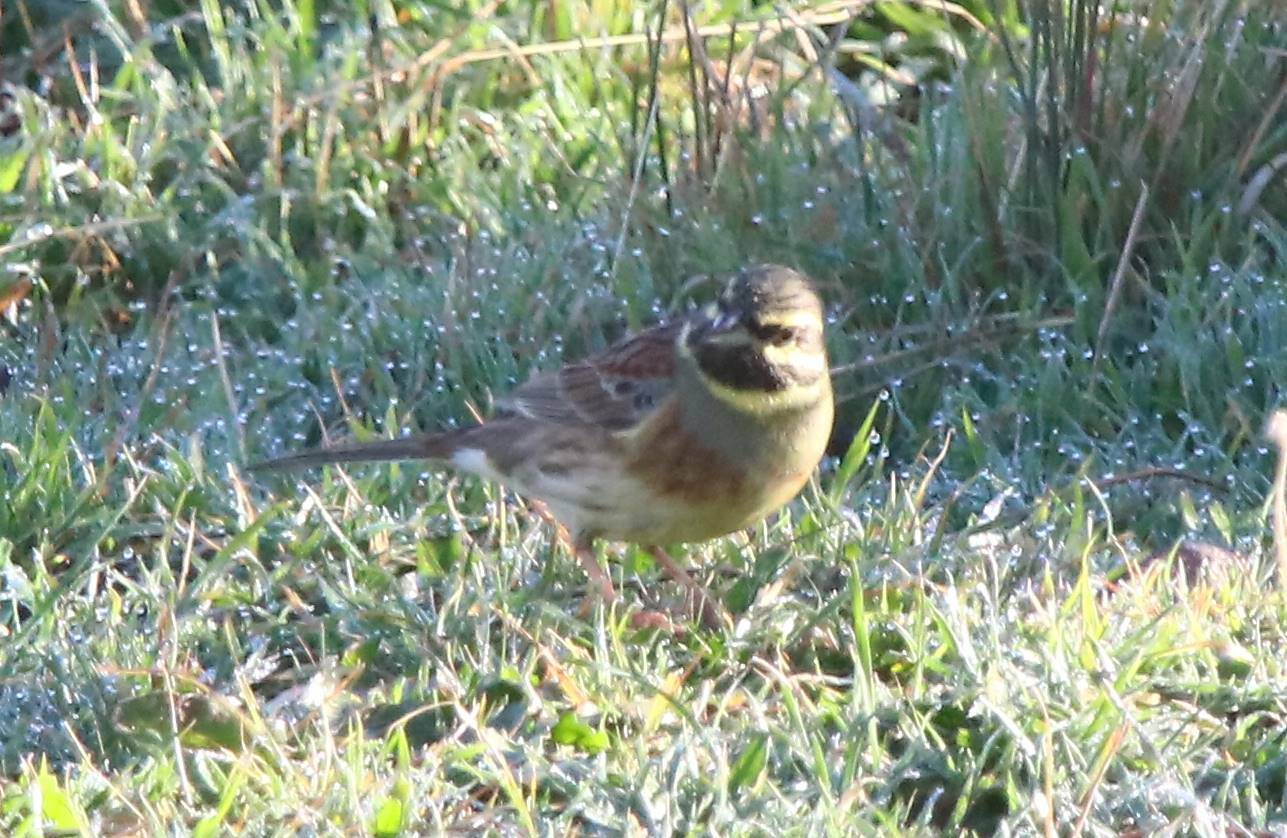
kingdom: Animalia
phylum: Chordata
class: Aves
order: Passeriformes
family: Emberizidae
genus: Emberiza
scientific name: Emberiza cirlus
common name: Cirl bunting
